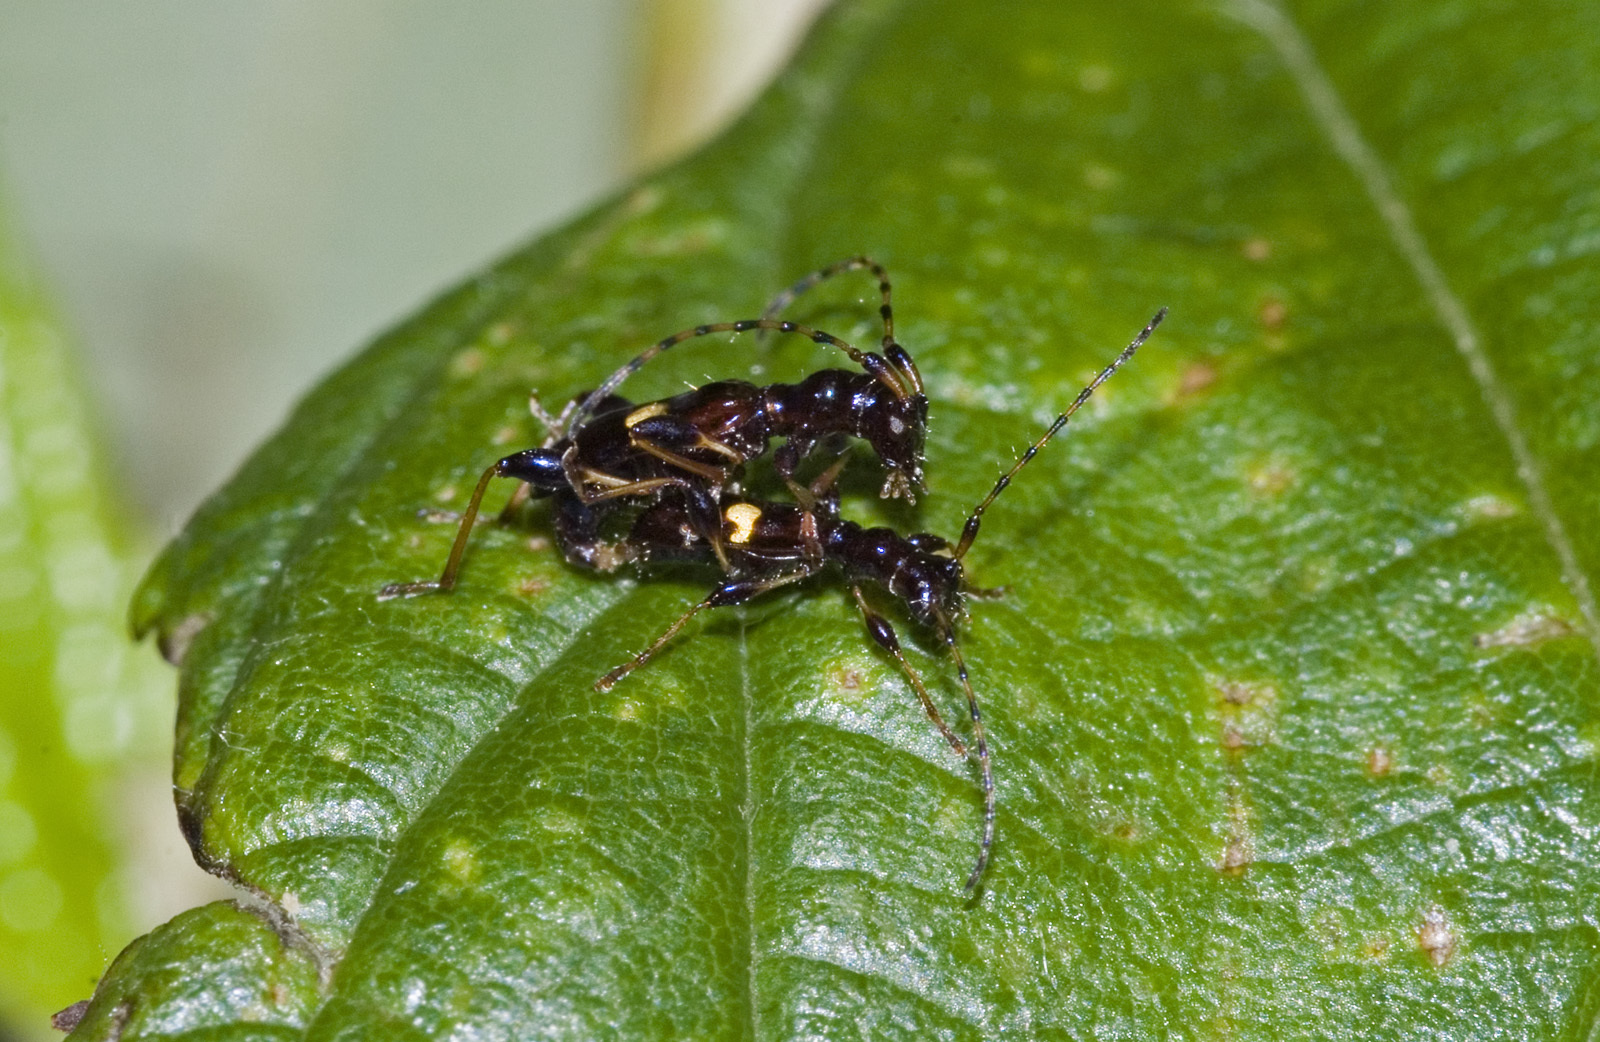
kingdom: Animalia
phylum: Arthropoda
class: Insecta
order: Coleoptera
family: Cerambycidae
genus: Zorion
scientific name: Zorion guttigerum
